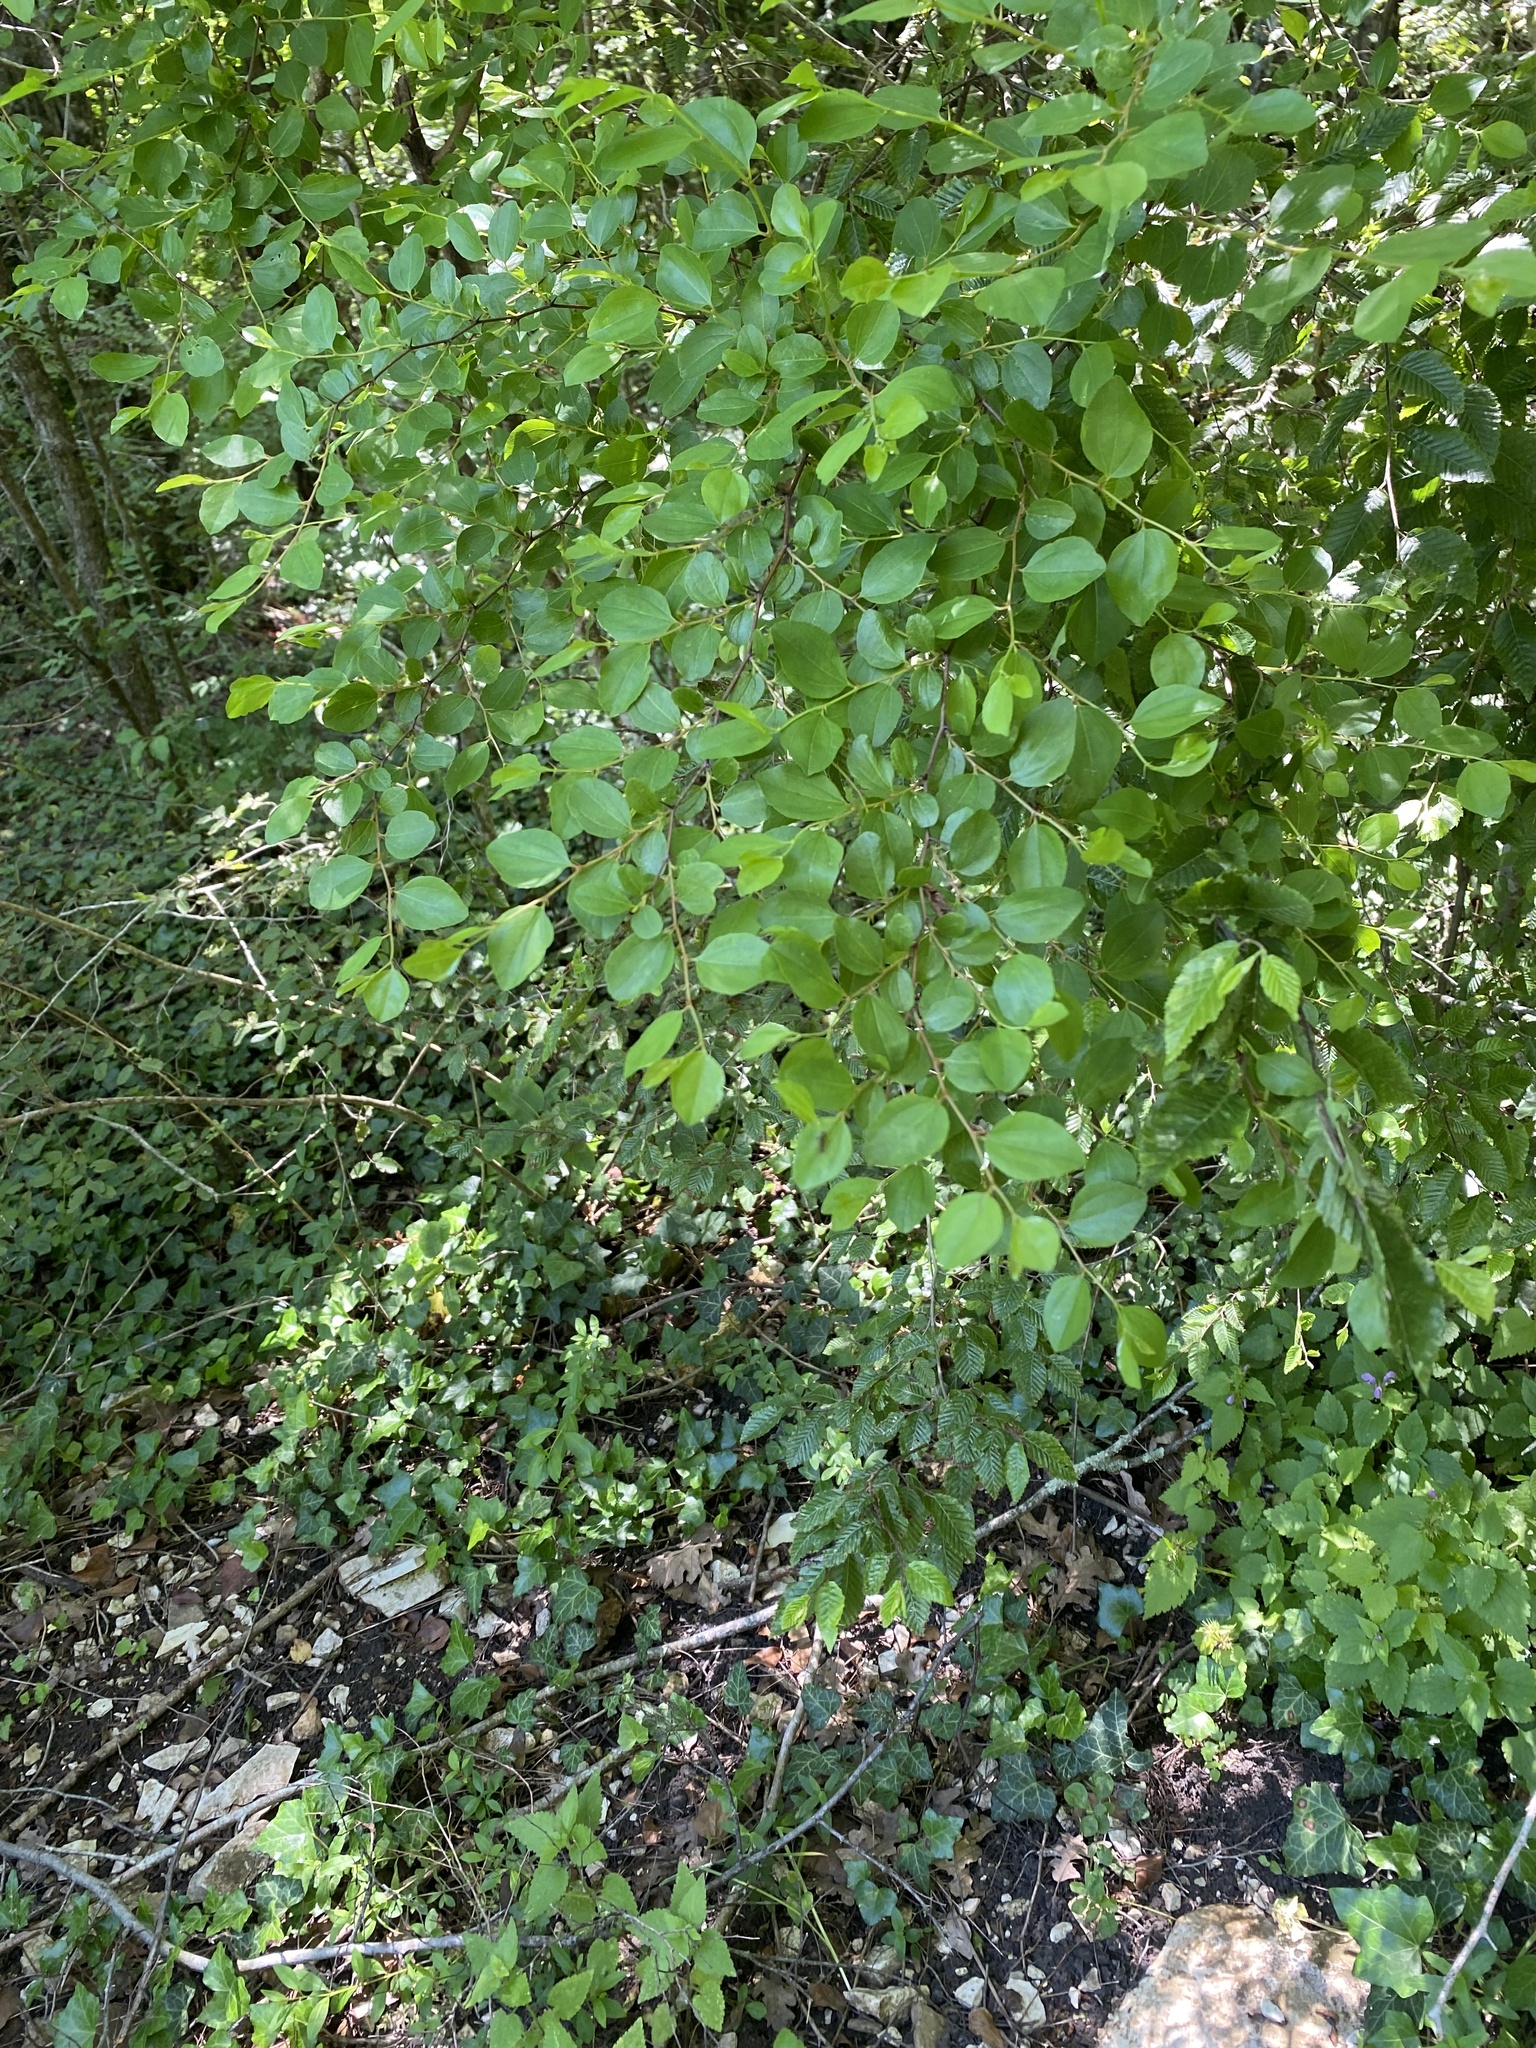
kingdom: Plantae
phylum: Tracheophyta
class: Magnoliopsida
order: Rosales
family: Rhamnaceae
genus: Paliurus
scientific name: Paliurus spina-christi
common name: Jeruselem thorn
